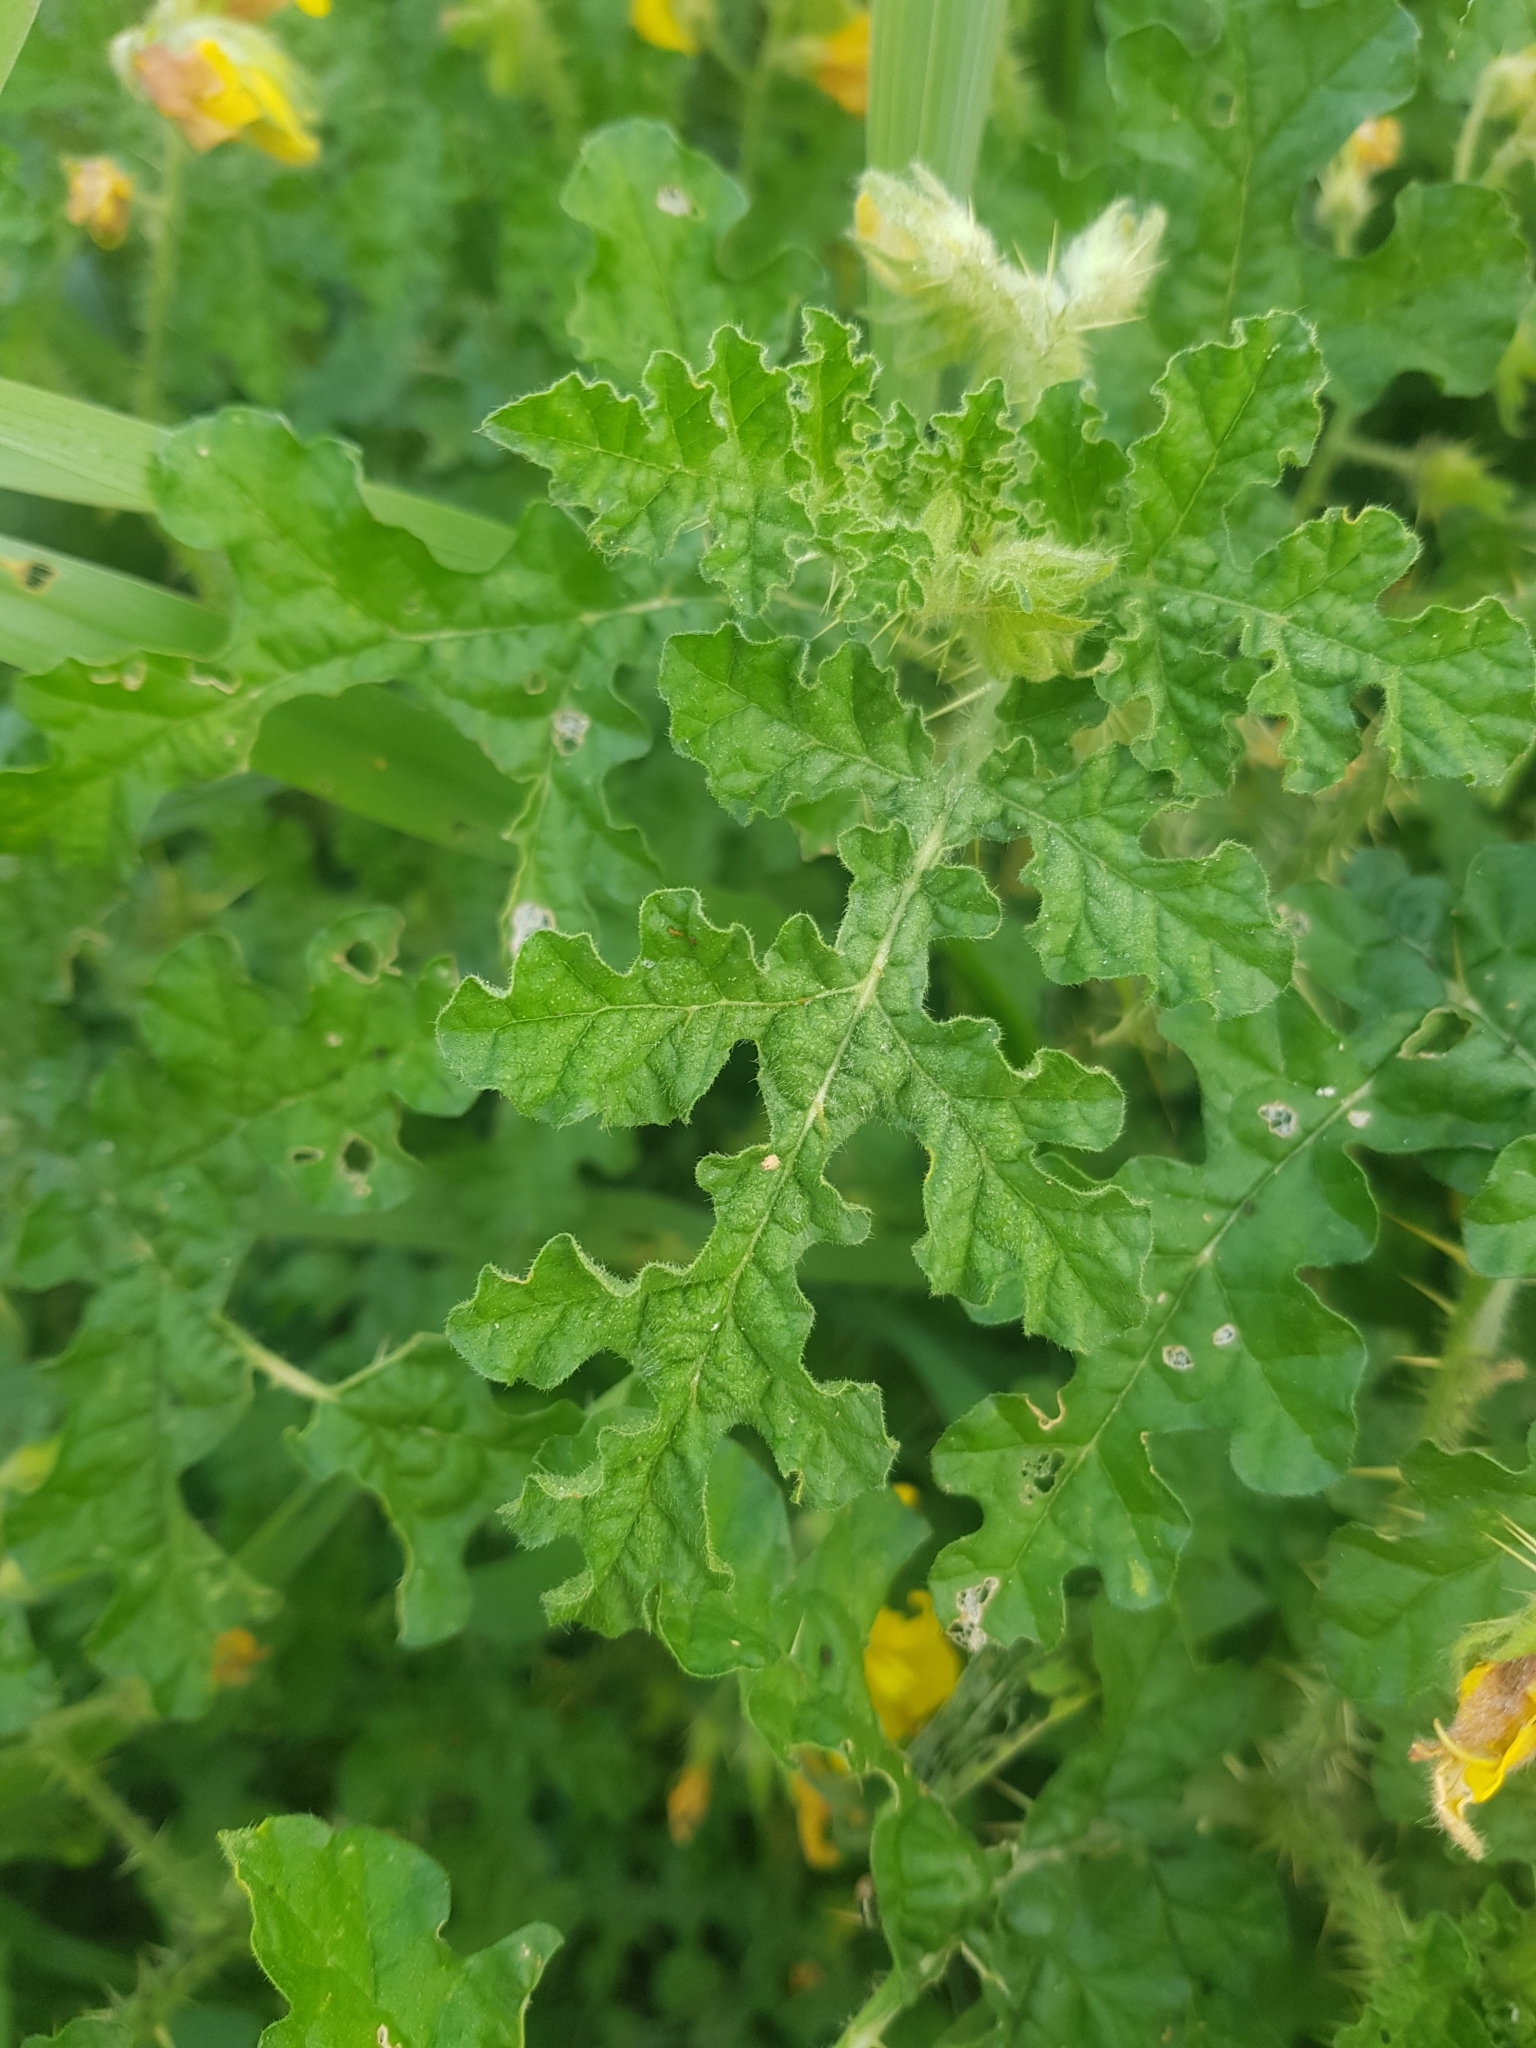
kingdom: Plantae
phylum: Tracheophyta
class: Magnoliopsida
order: Solanales
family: Solanaceae
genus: Solanum
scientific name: Solanum angustifolium
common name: Buffalobur nightshade
